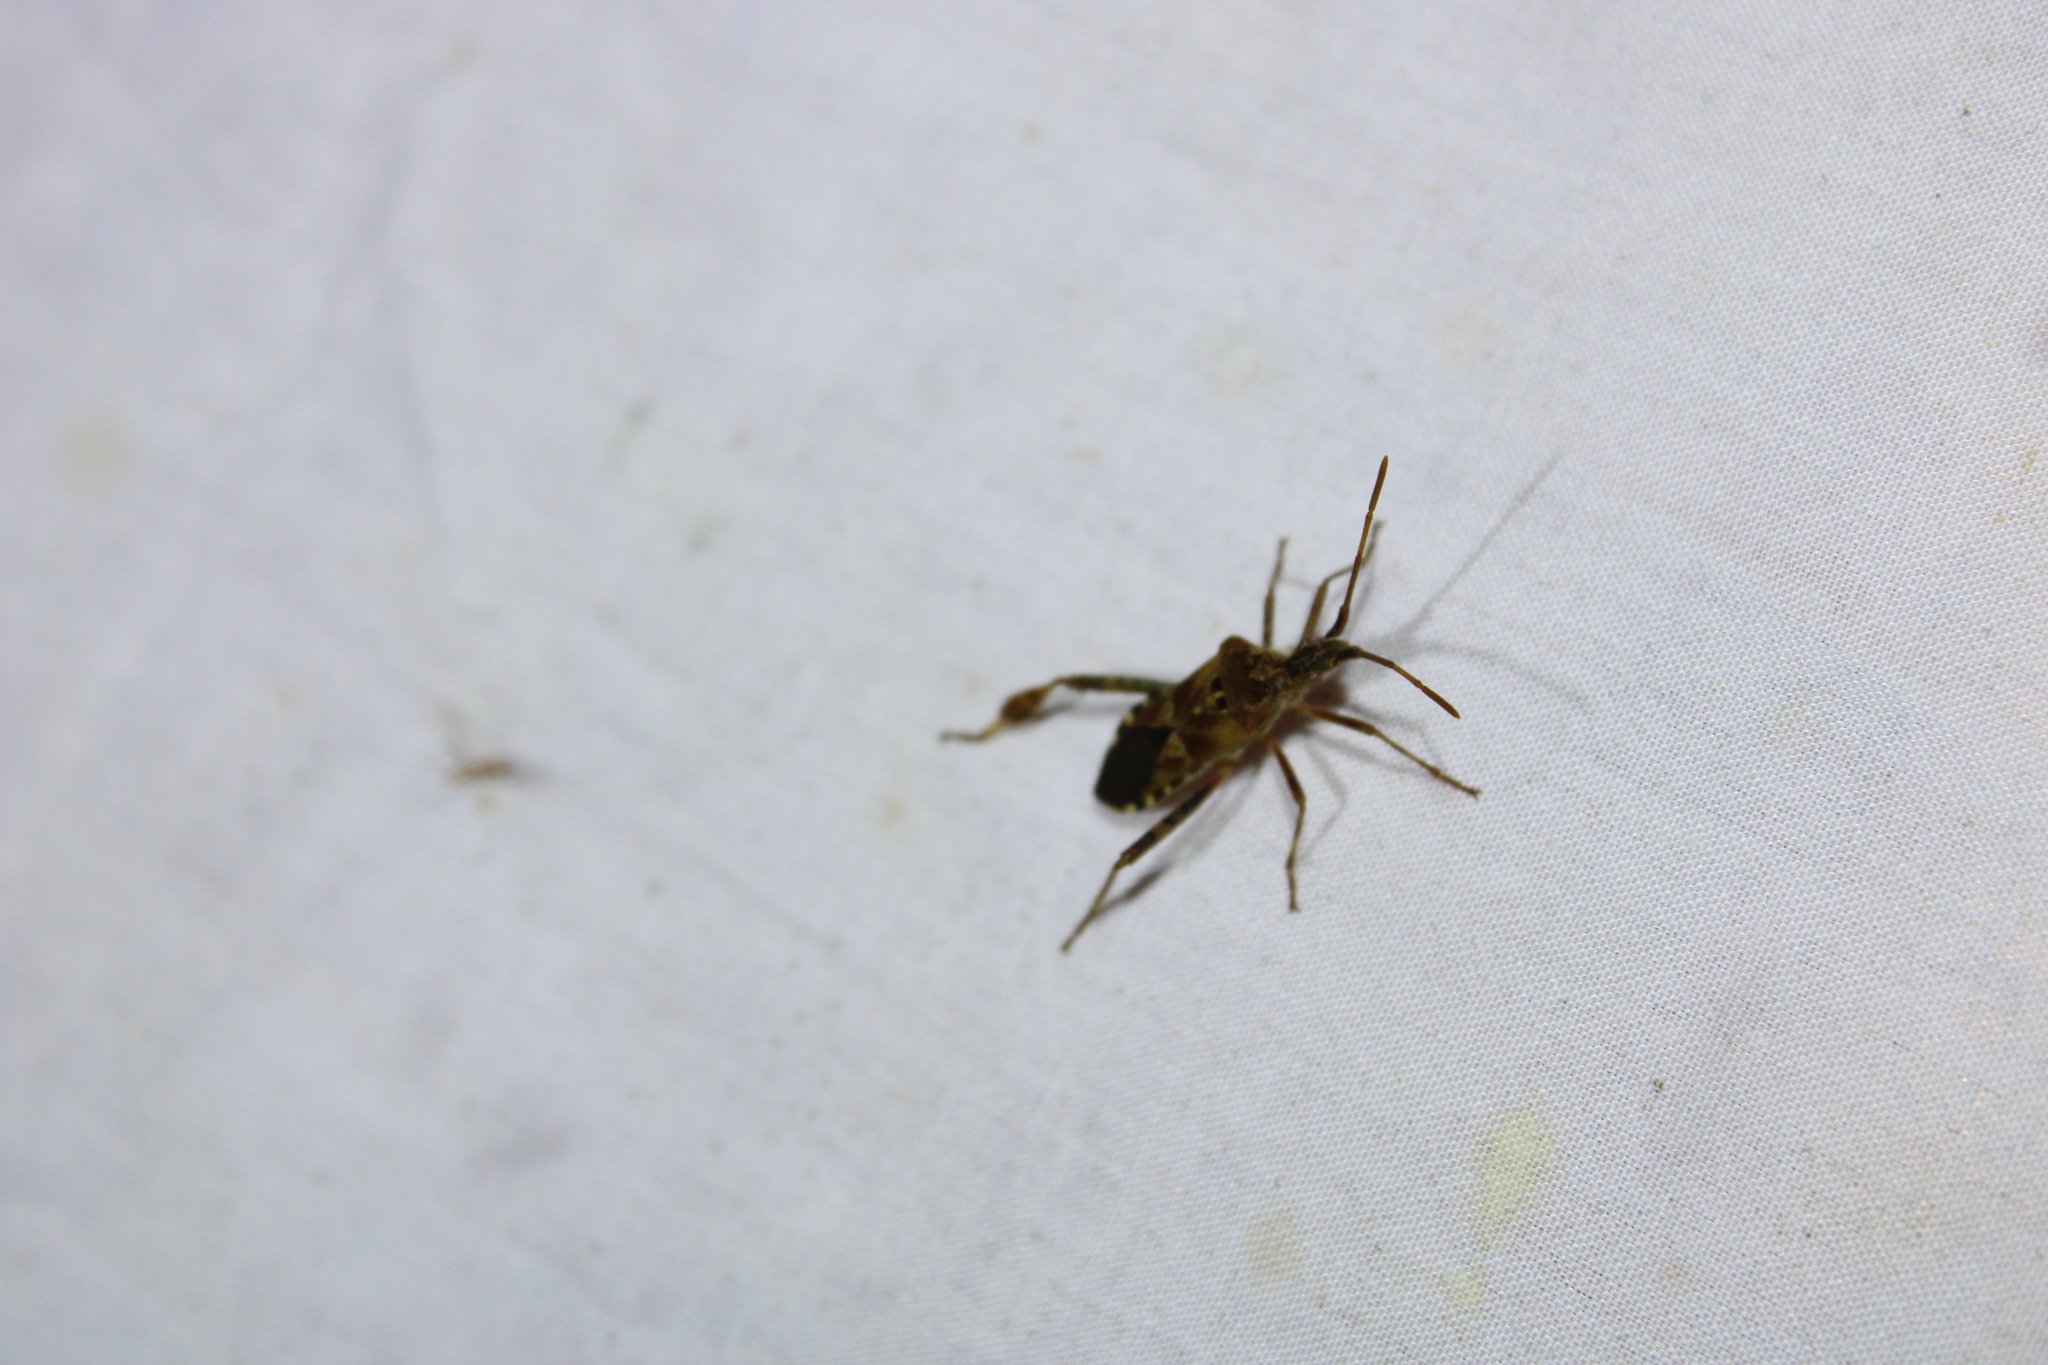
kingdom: Animalia
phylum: Arthropoda
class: Insecta
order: Hemiptera
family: Coreidae
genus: Leptoglossus
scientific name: Leptoglossus occidentalis
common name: Western conifer-seed bug
